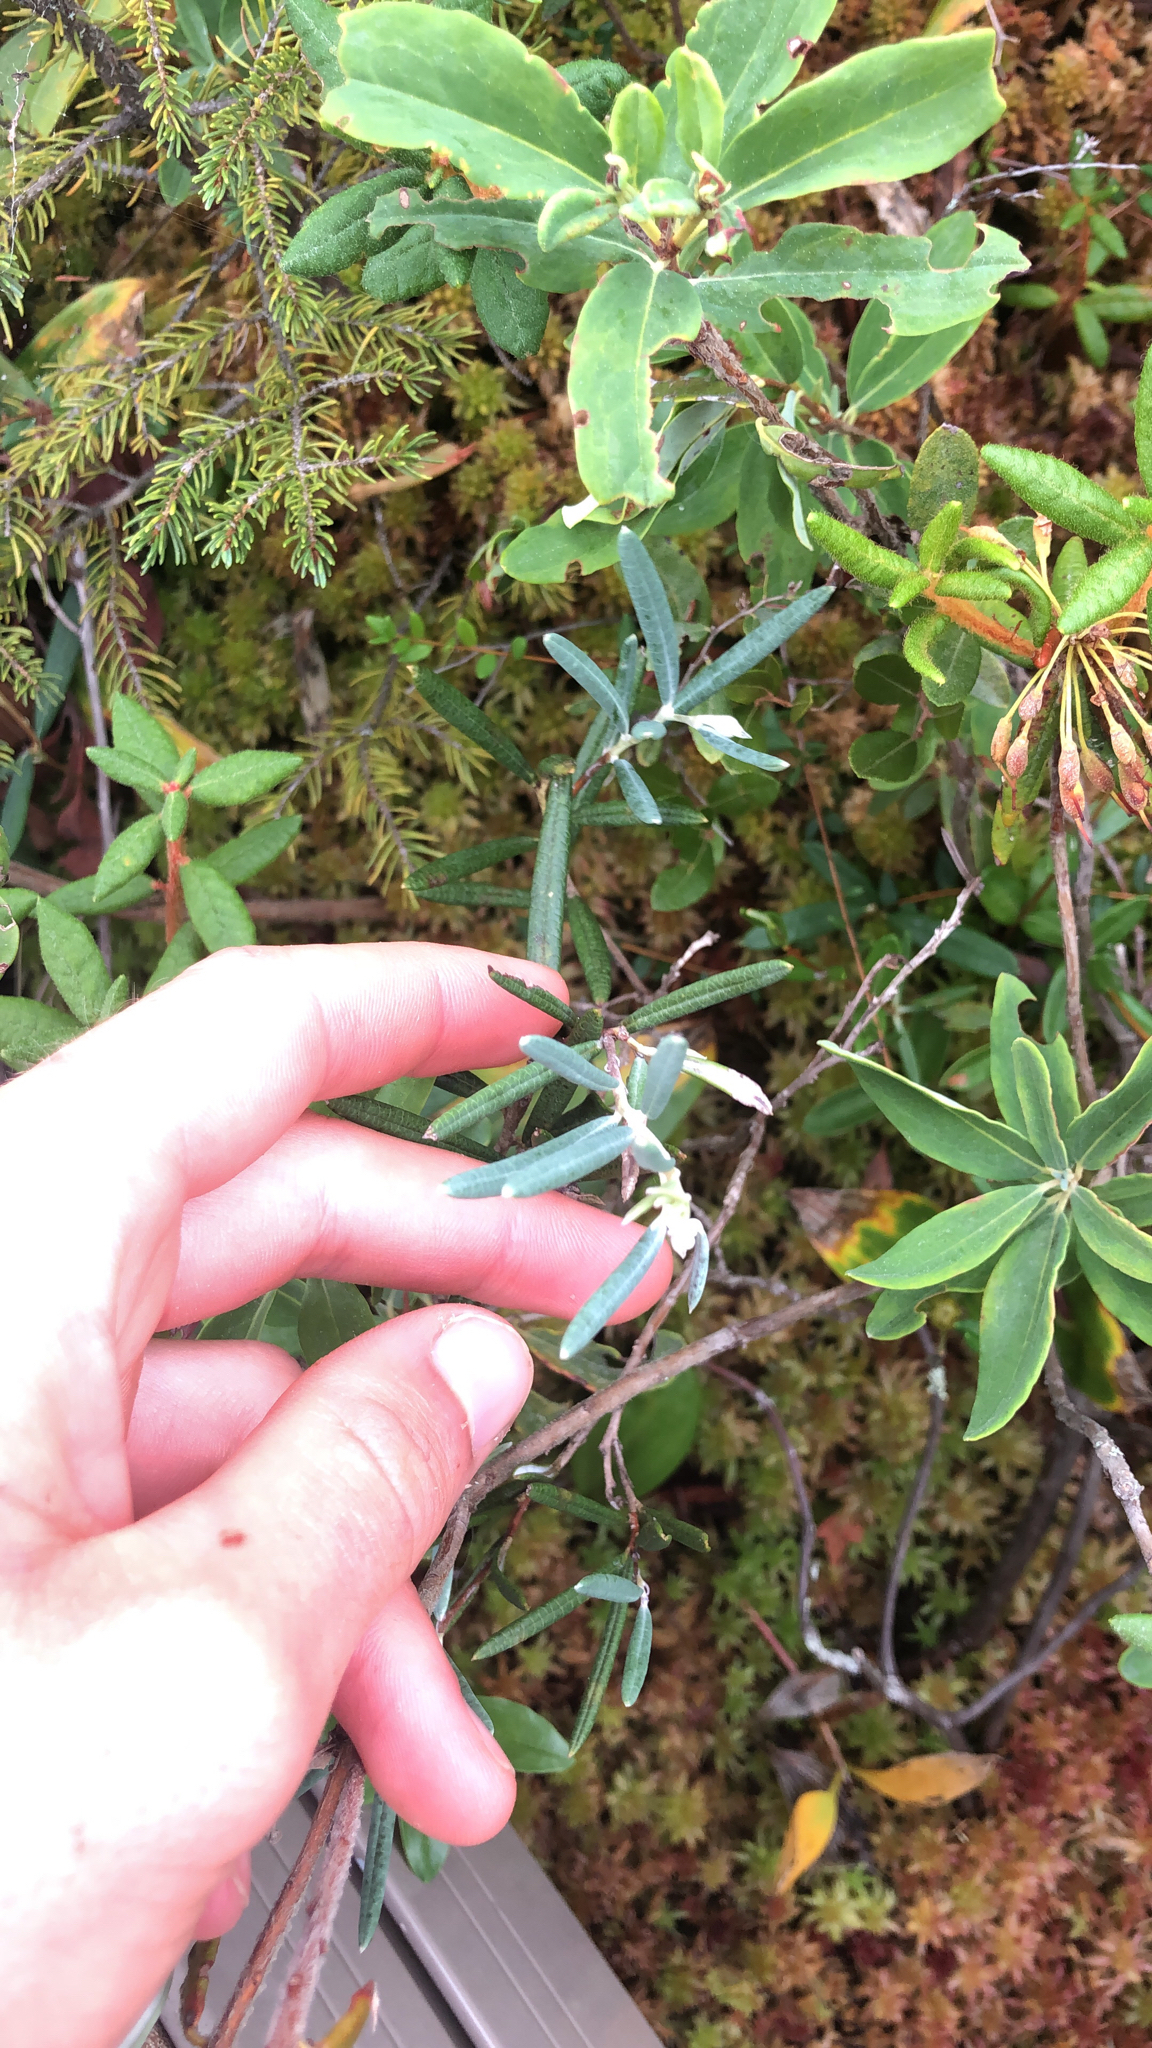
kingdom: Plantae
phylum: Tracheophyta
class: Magnoliopsida
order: Ericales
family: Ericaceae
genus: Andromeda
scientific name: Andromeda polifolia
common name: Bog-rosemary
